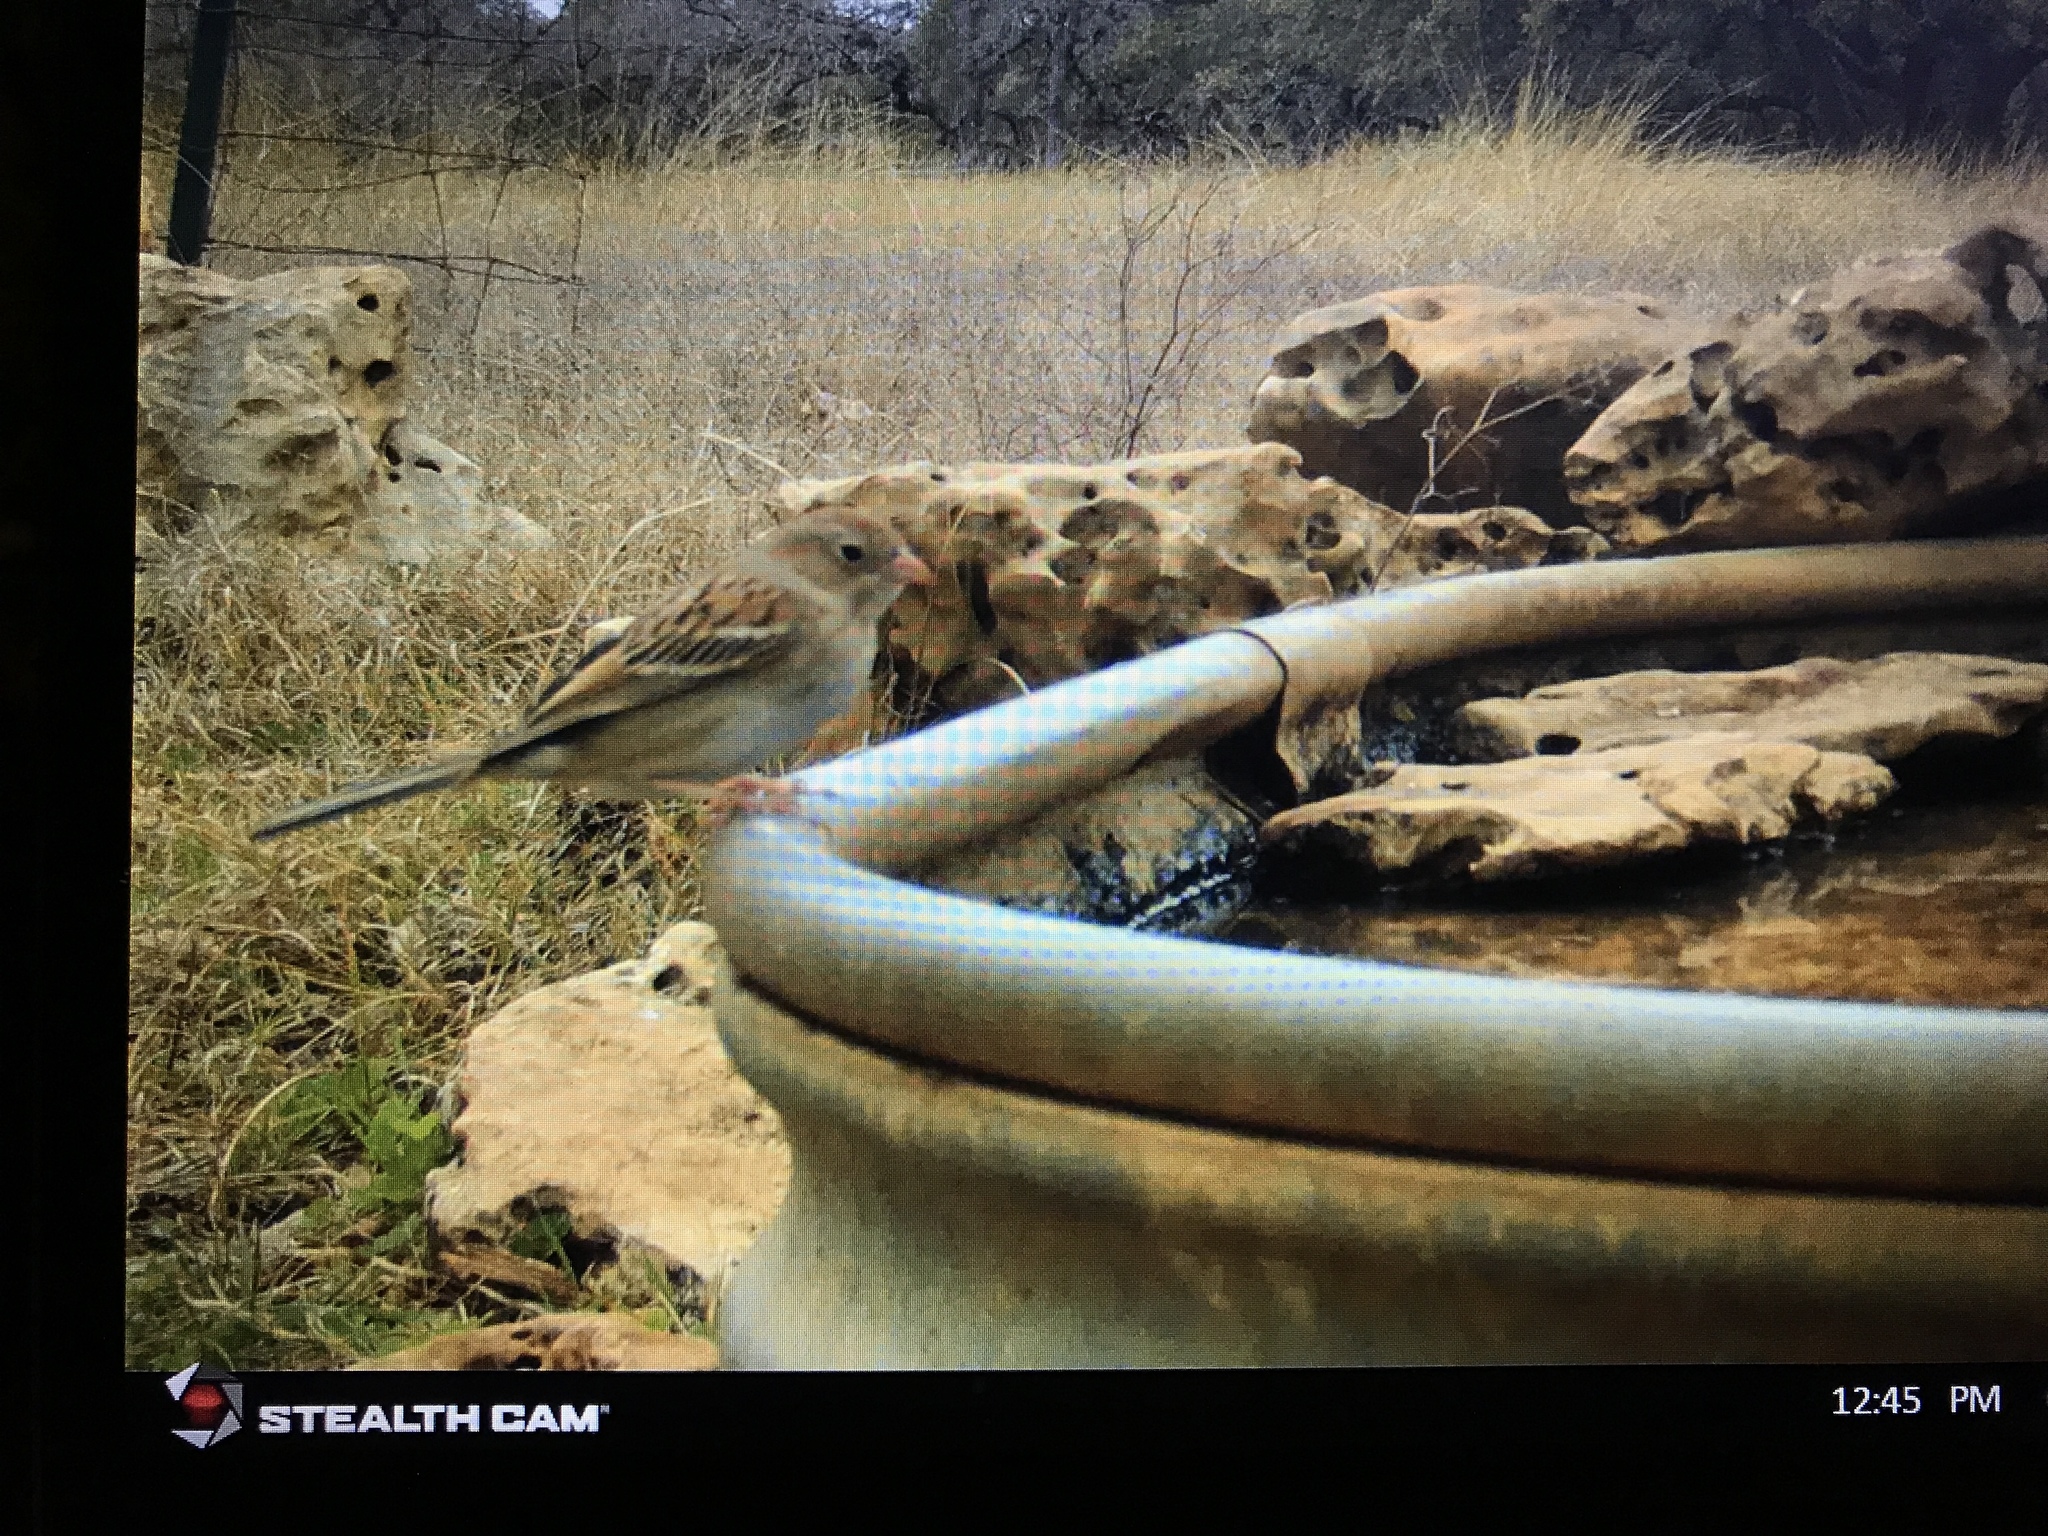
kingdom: Animalia
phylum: Chordata
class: Aves
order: Passeriformes
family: Passerellidae
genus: Spizella
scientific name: Spizella pusilla
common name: Field sparrow
